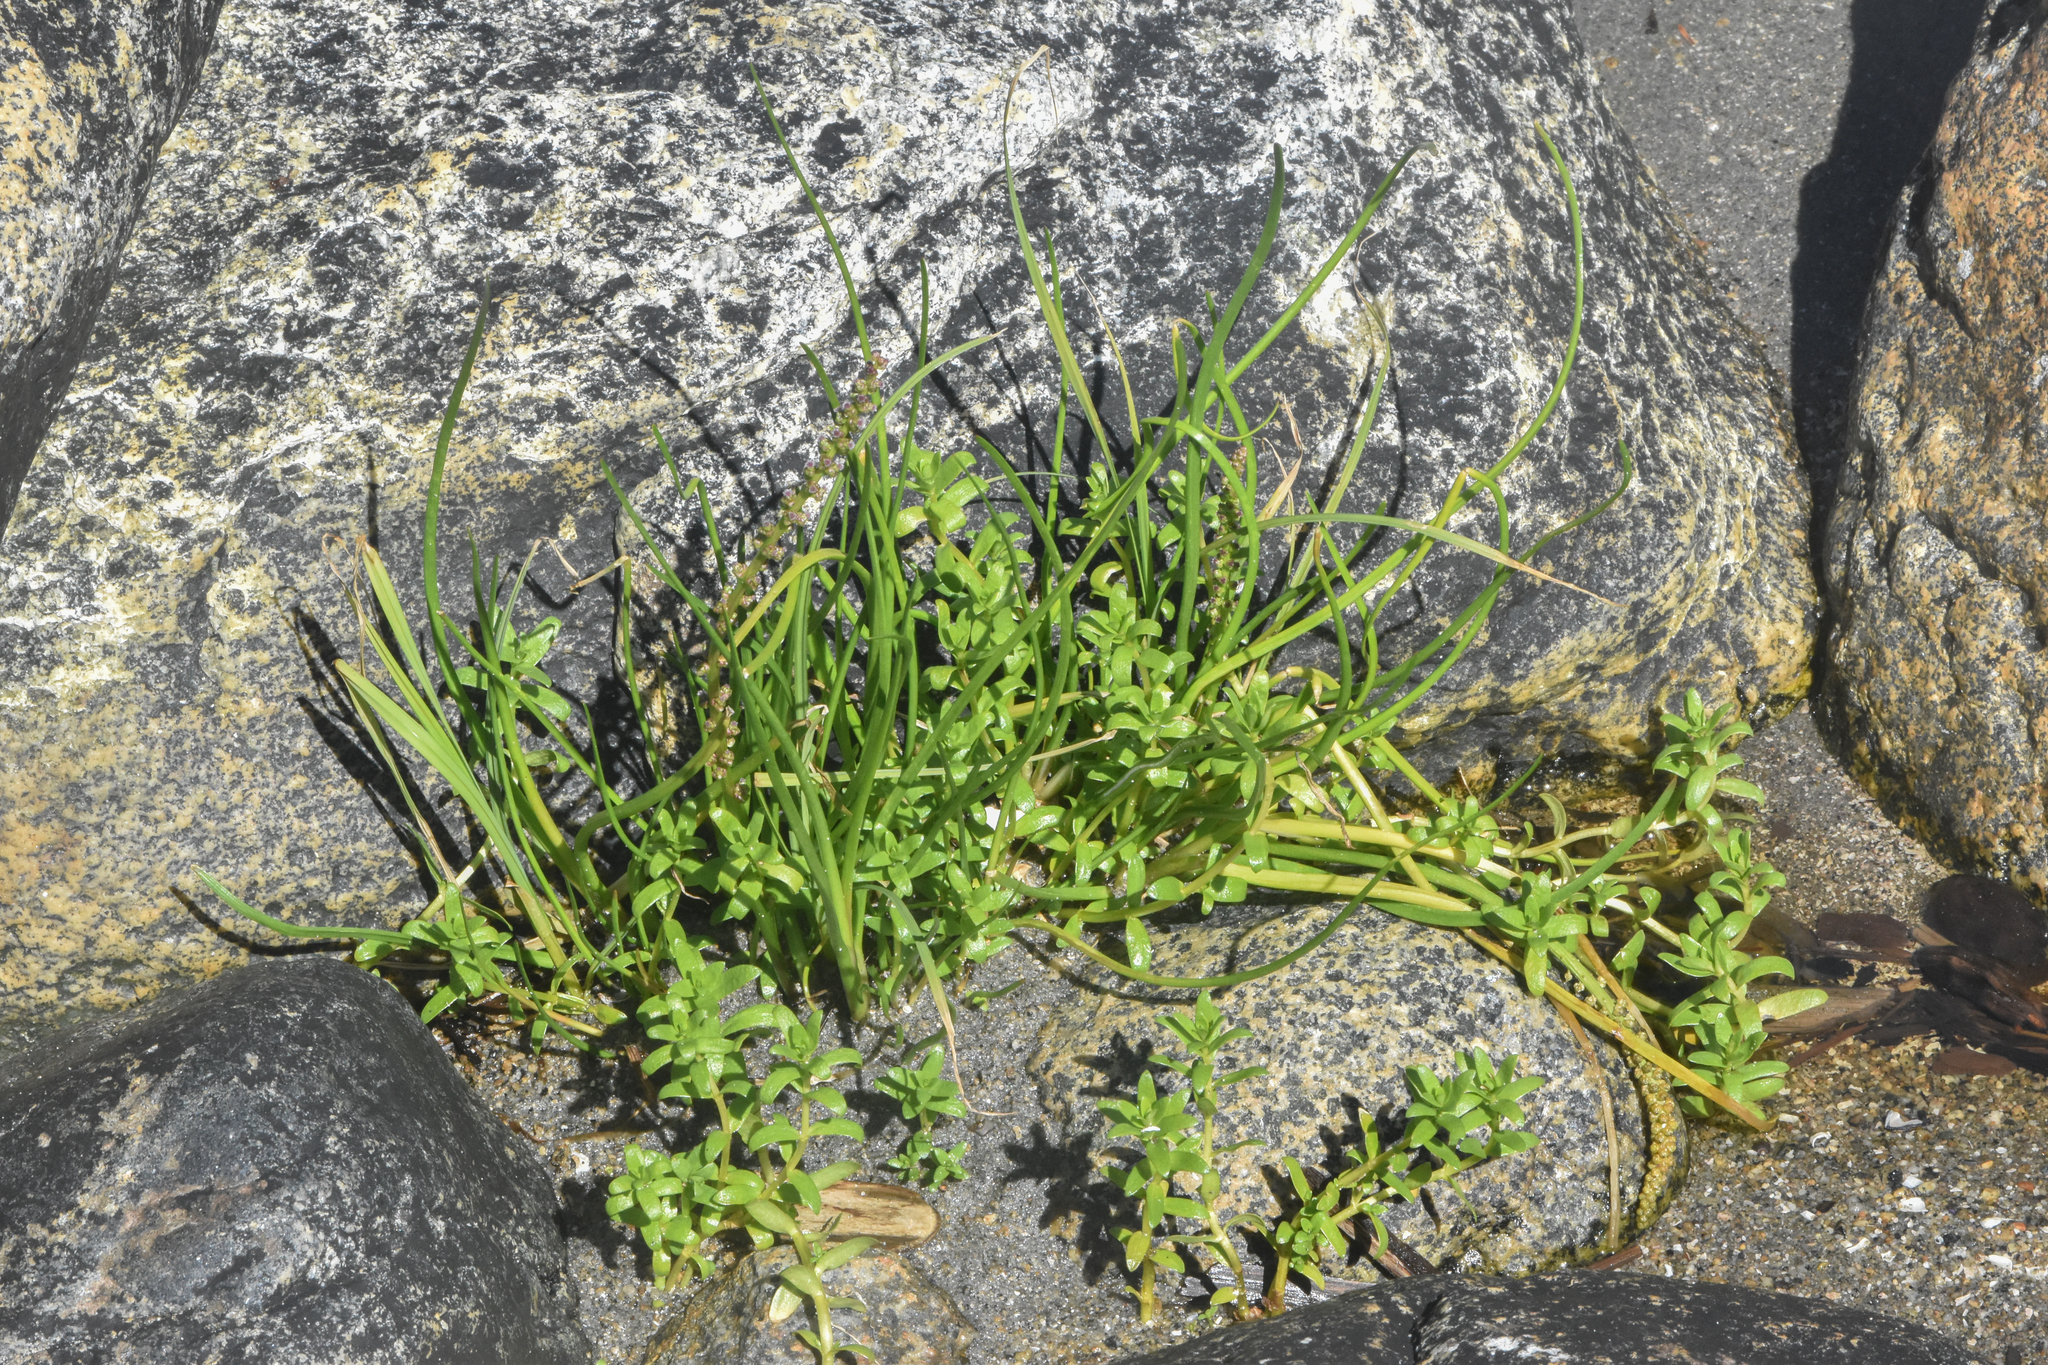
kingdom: Plantae
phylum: Tracheophyta
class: Liliopsida
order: Alismatales
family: Juncaginaceae
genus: Triglochin
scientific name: Triglochin maritima
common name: Sea arrowgrass
